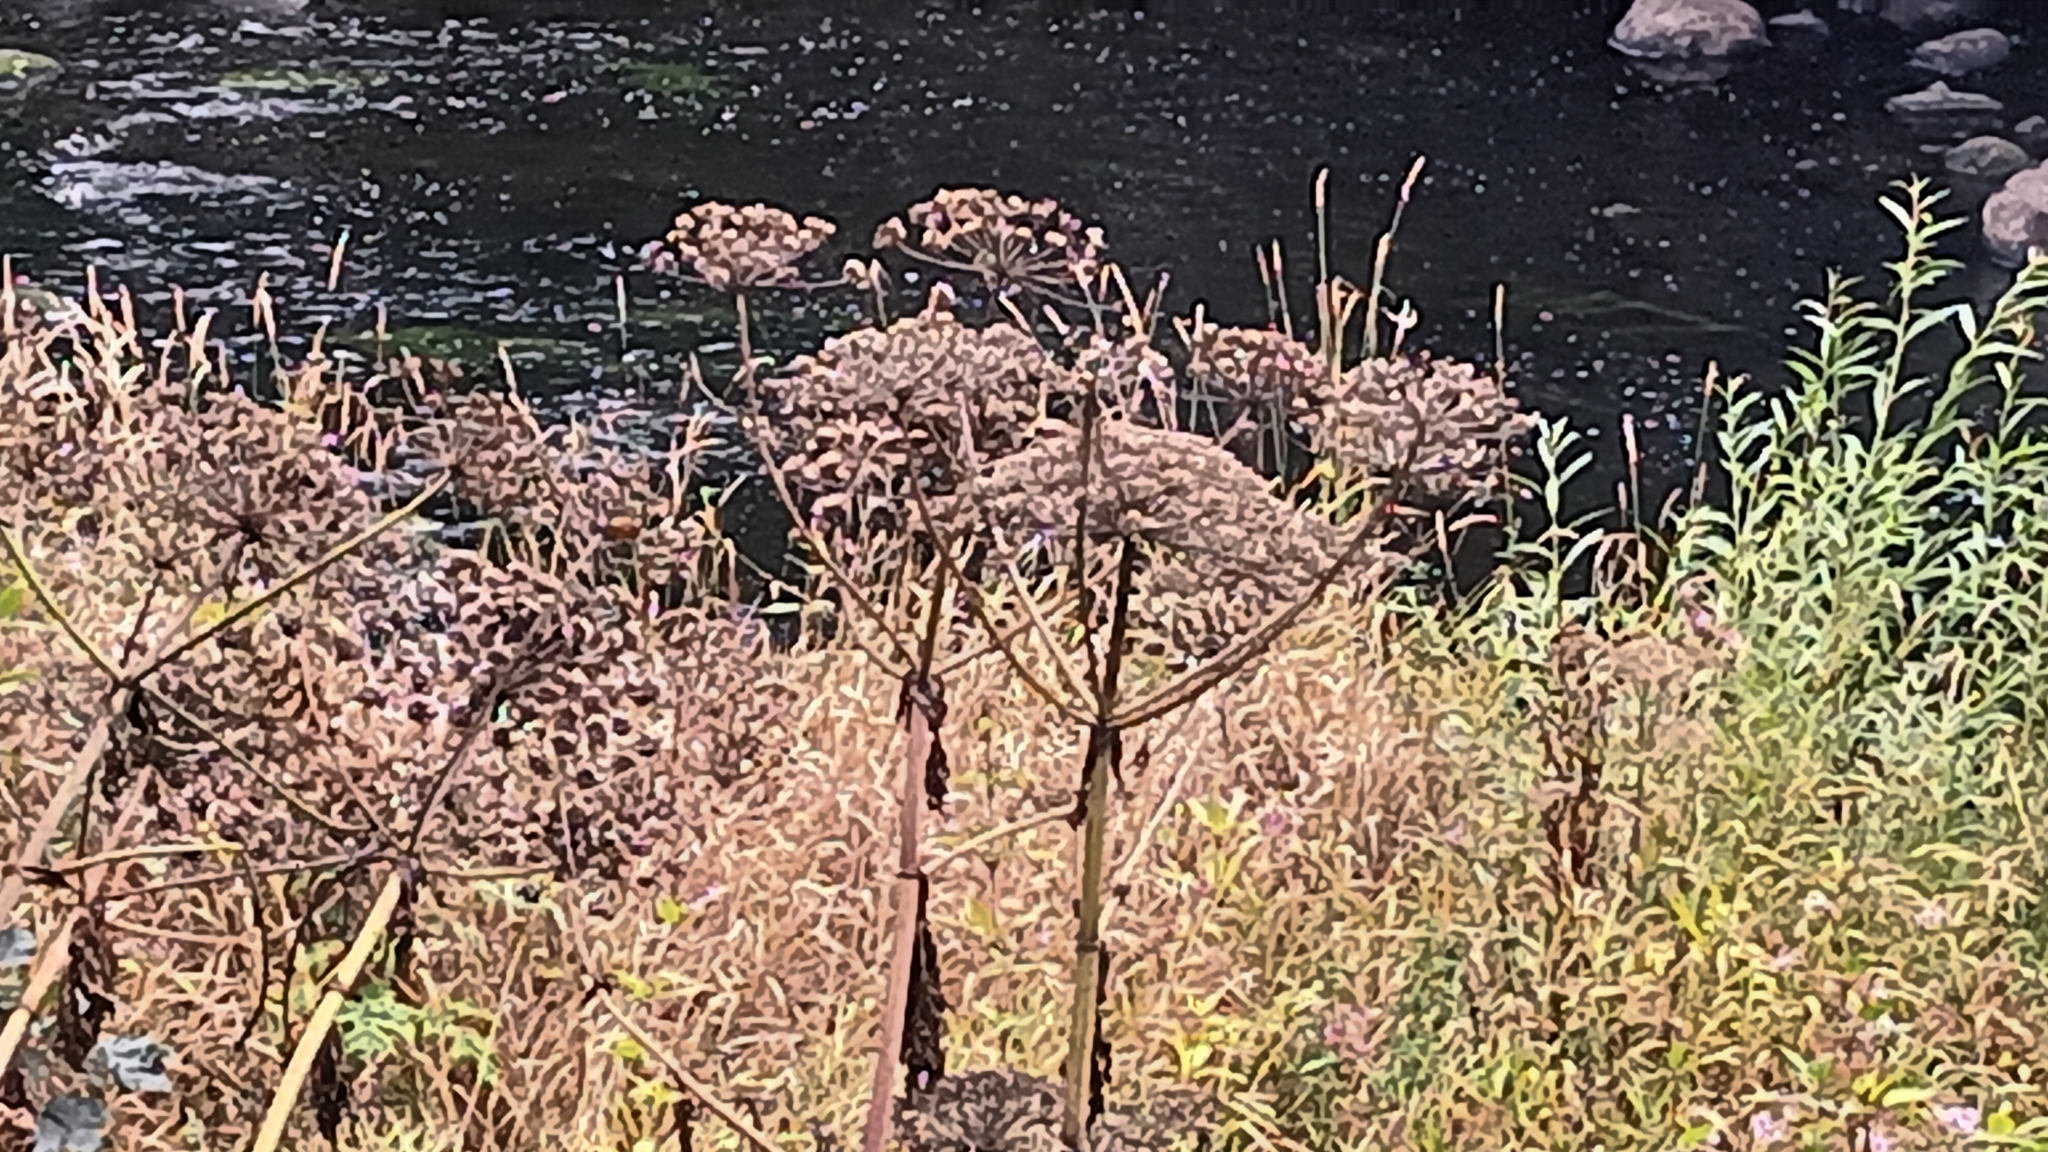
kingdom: Plantae
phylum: Tracheophyta
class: Magnoliopsida
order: Apiales
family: Apiaceae
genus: Heracleum
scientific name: Heracleum mantegazzianum
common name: Giant hogweed
